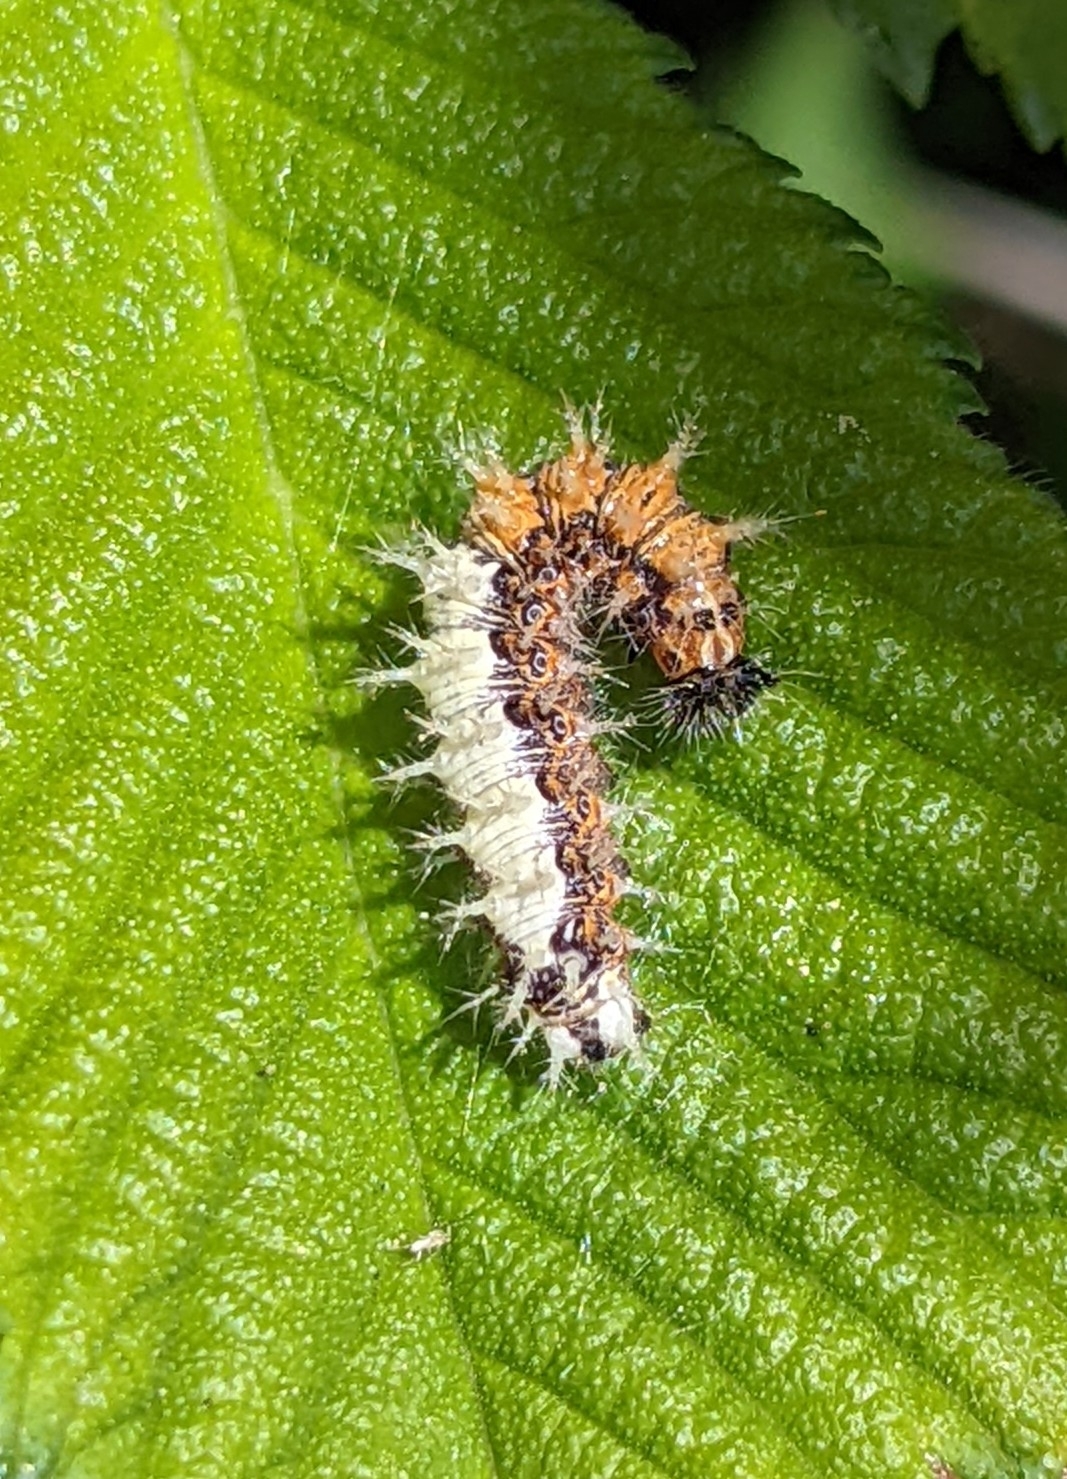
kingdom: Animalia
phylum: Arthropoda
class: Insecta
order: Lepidoptera
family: Nymphalidae
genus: Polygonia
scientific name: Polygonia c-album
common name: Comma
